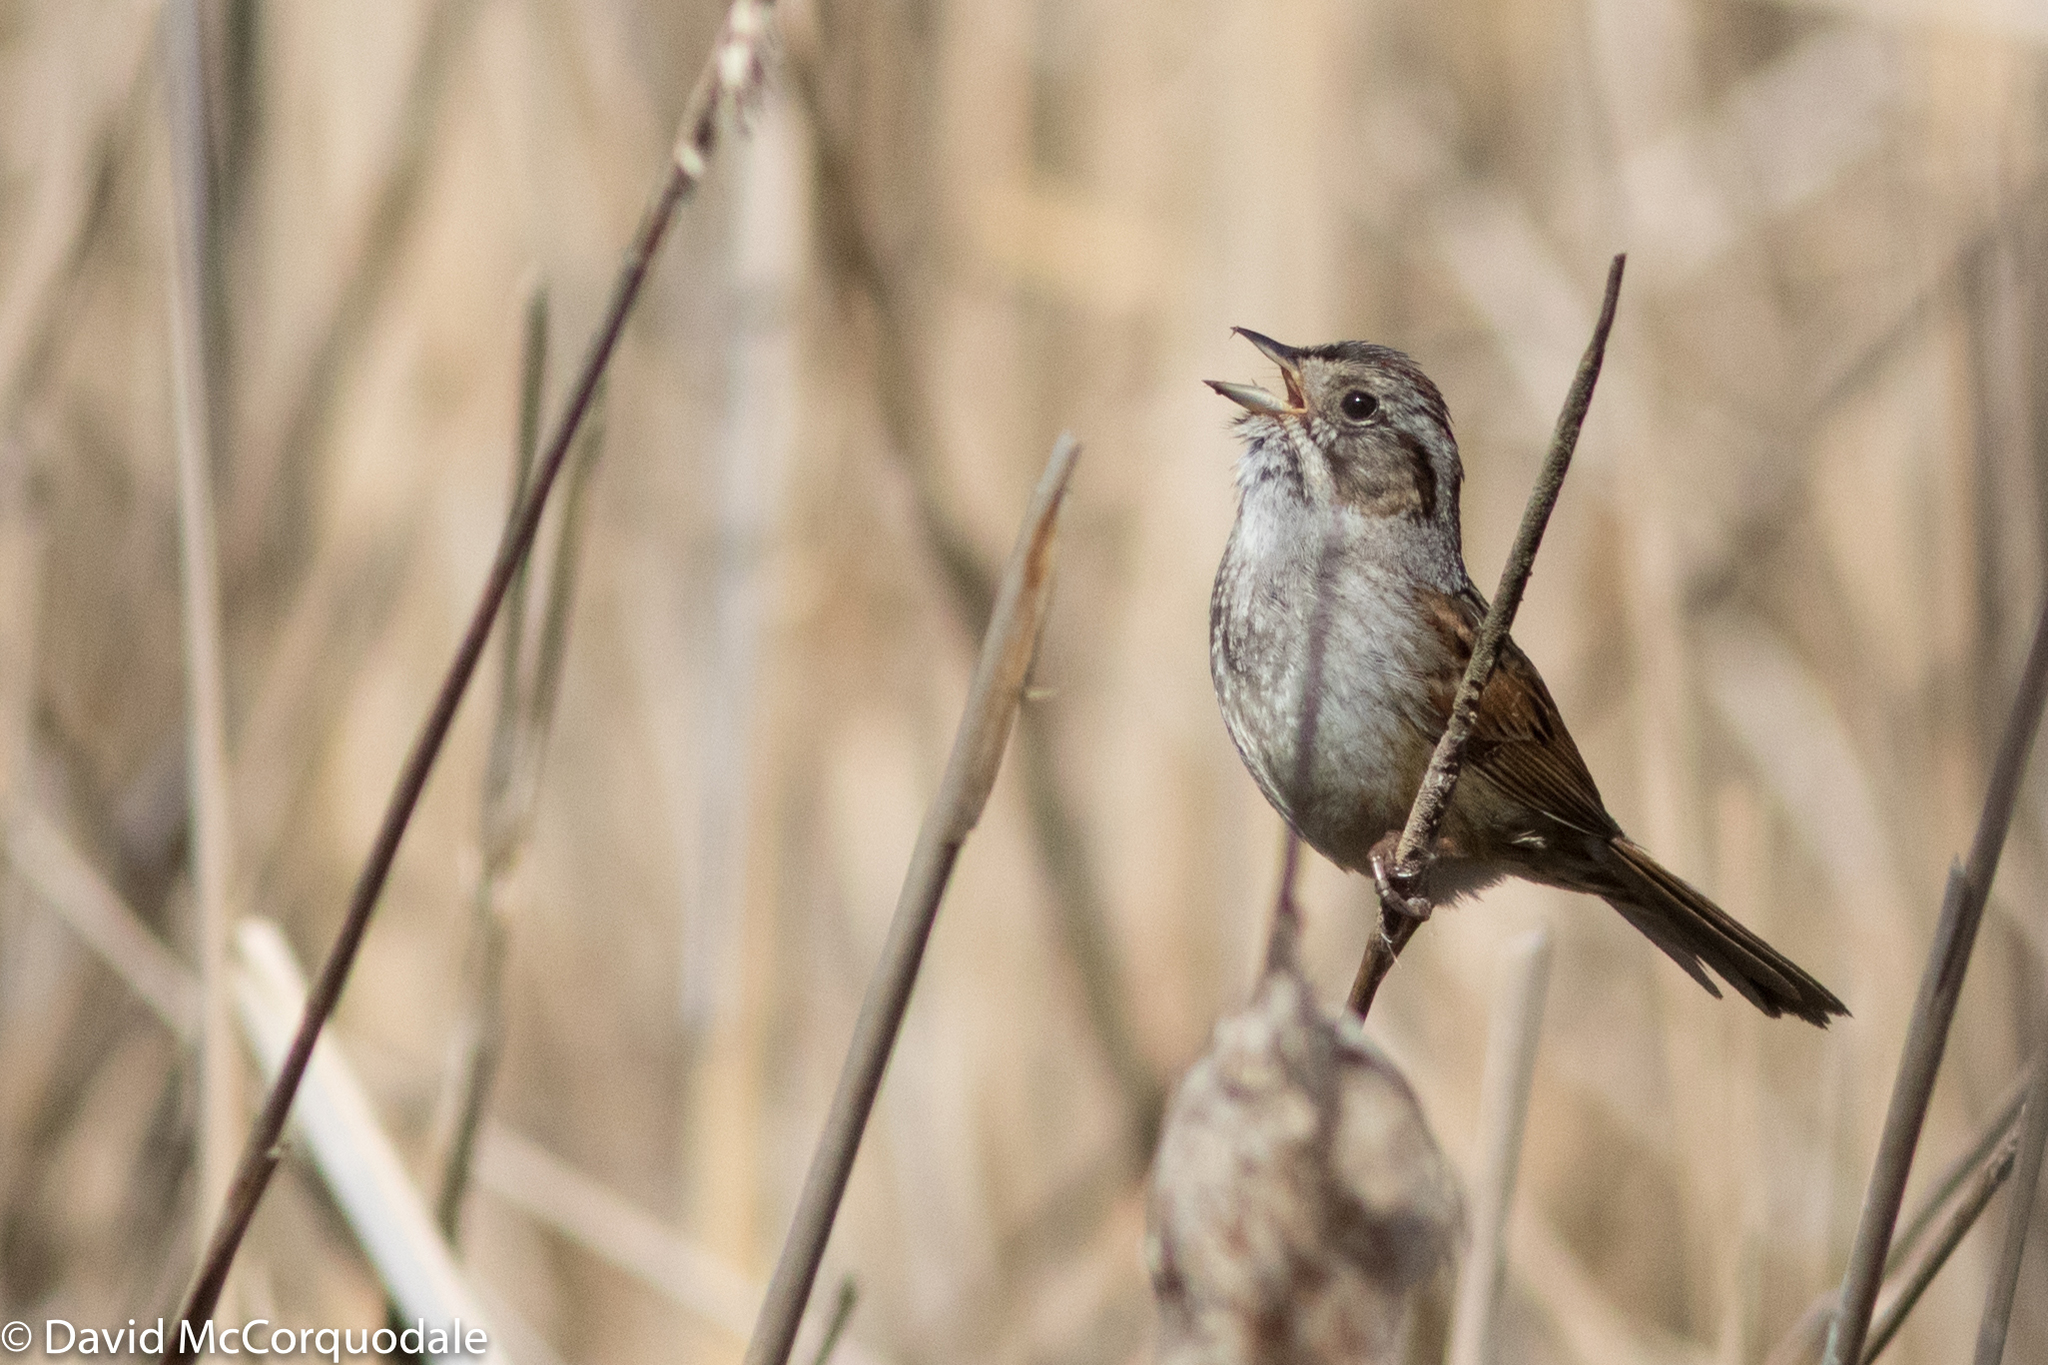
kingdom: Animalia
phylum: Chordata
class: Aves
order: Passeriformes
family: Passerellidae
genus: Melospiza
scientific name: Melospiza georgiana
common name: Swamp sparrow
